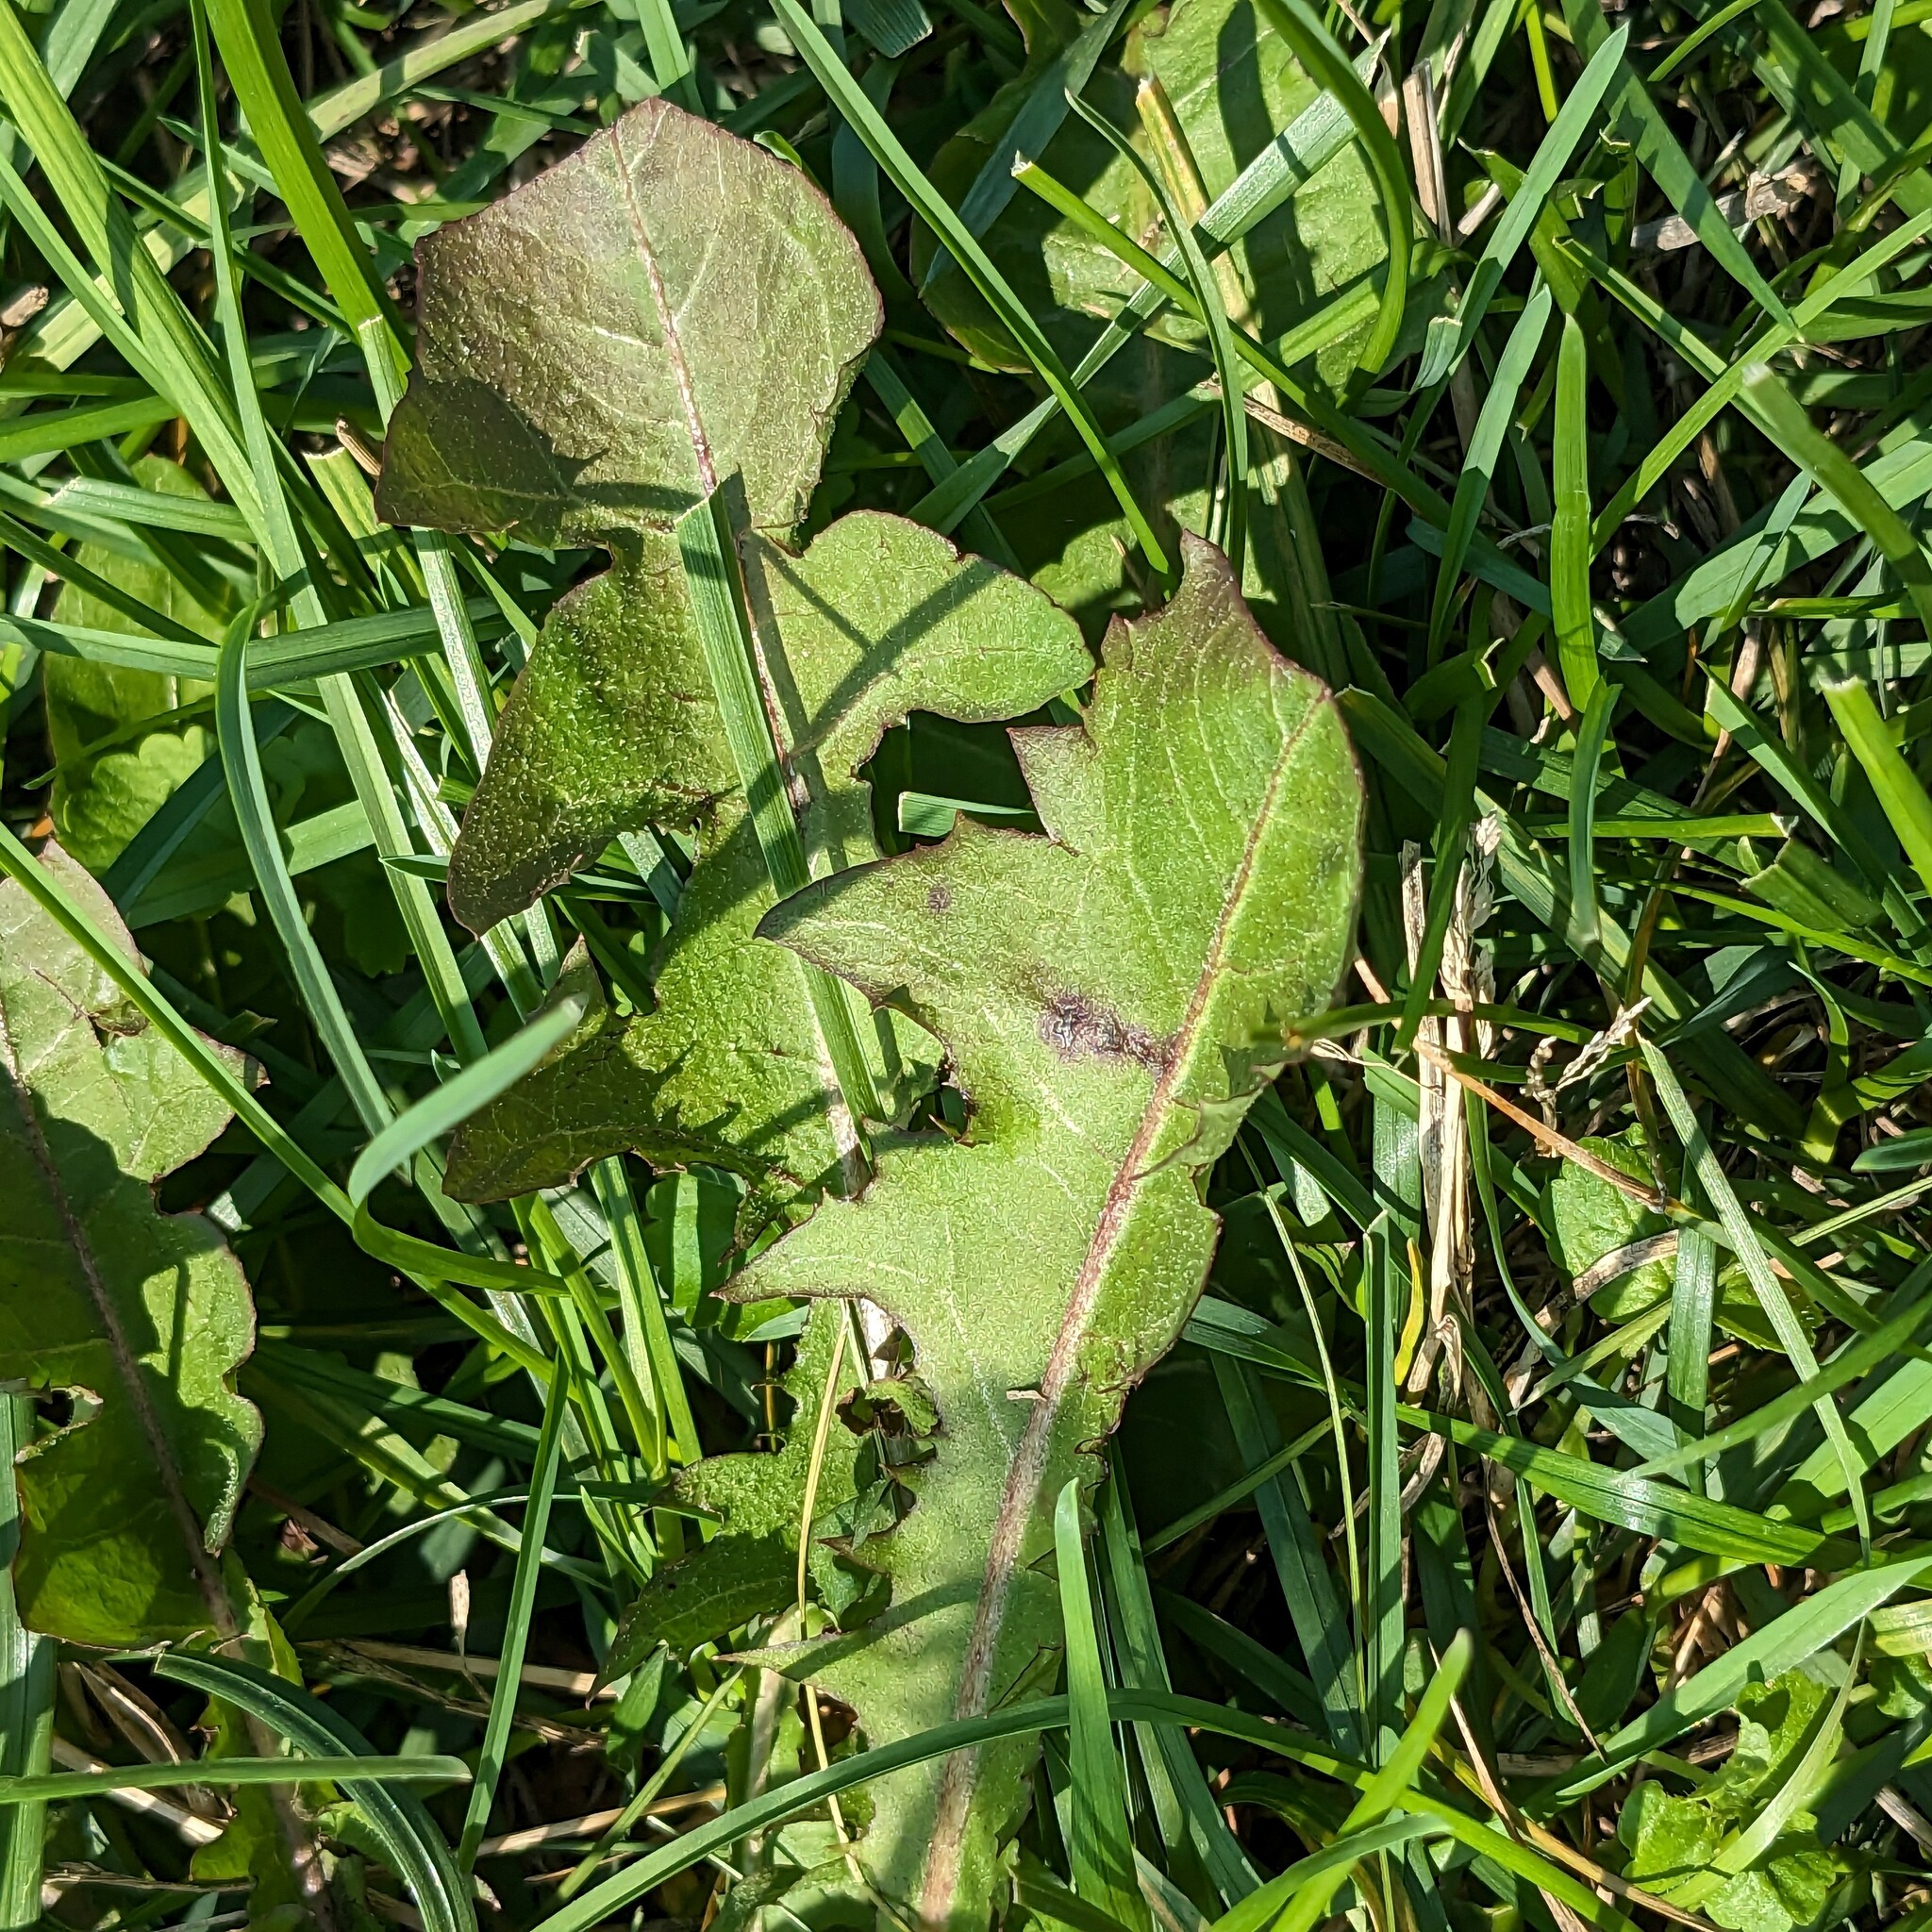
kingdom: Plantae
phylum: Tracheophyta
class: Magnoliopsida
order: Asterales
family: Asteraceae
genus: Taraxacum
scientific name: Taraxacum officinale
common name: Common dandelion
